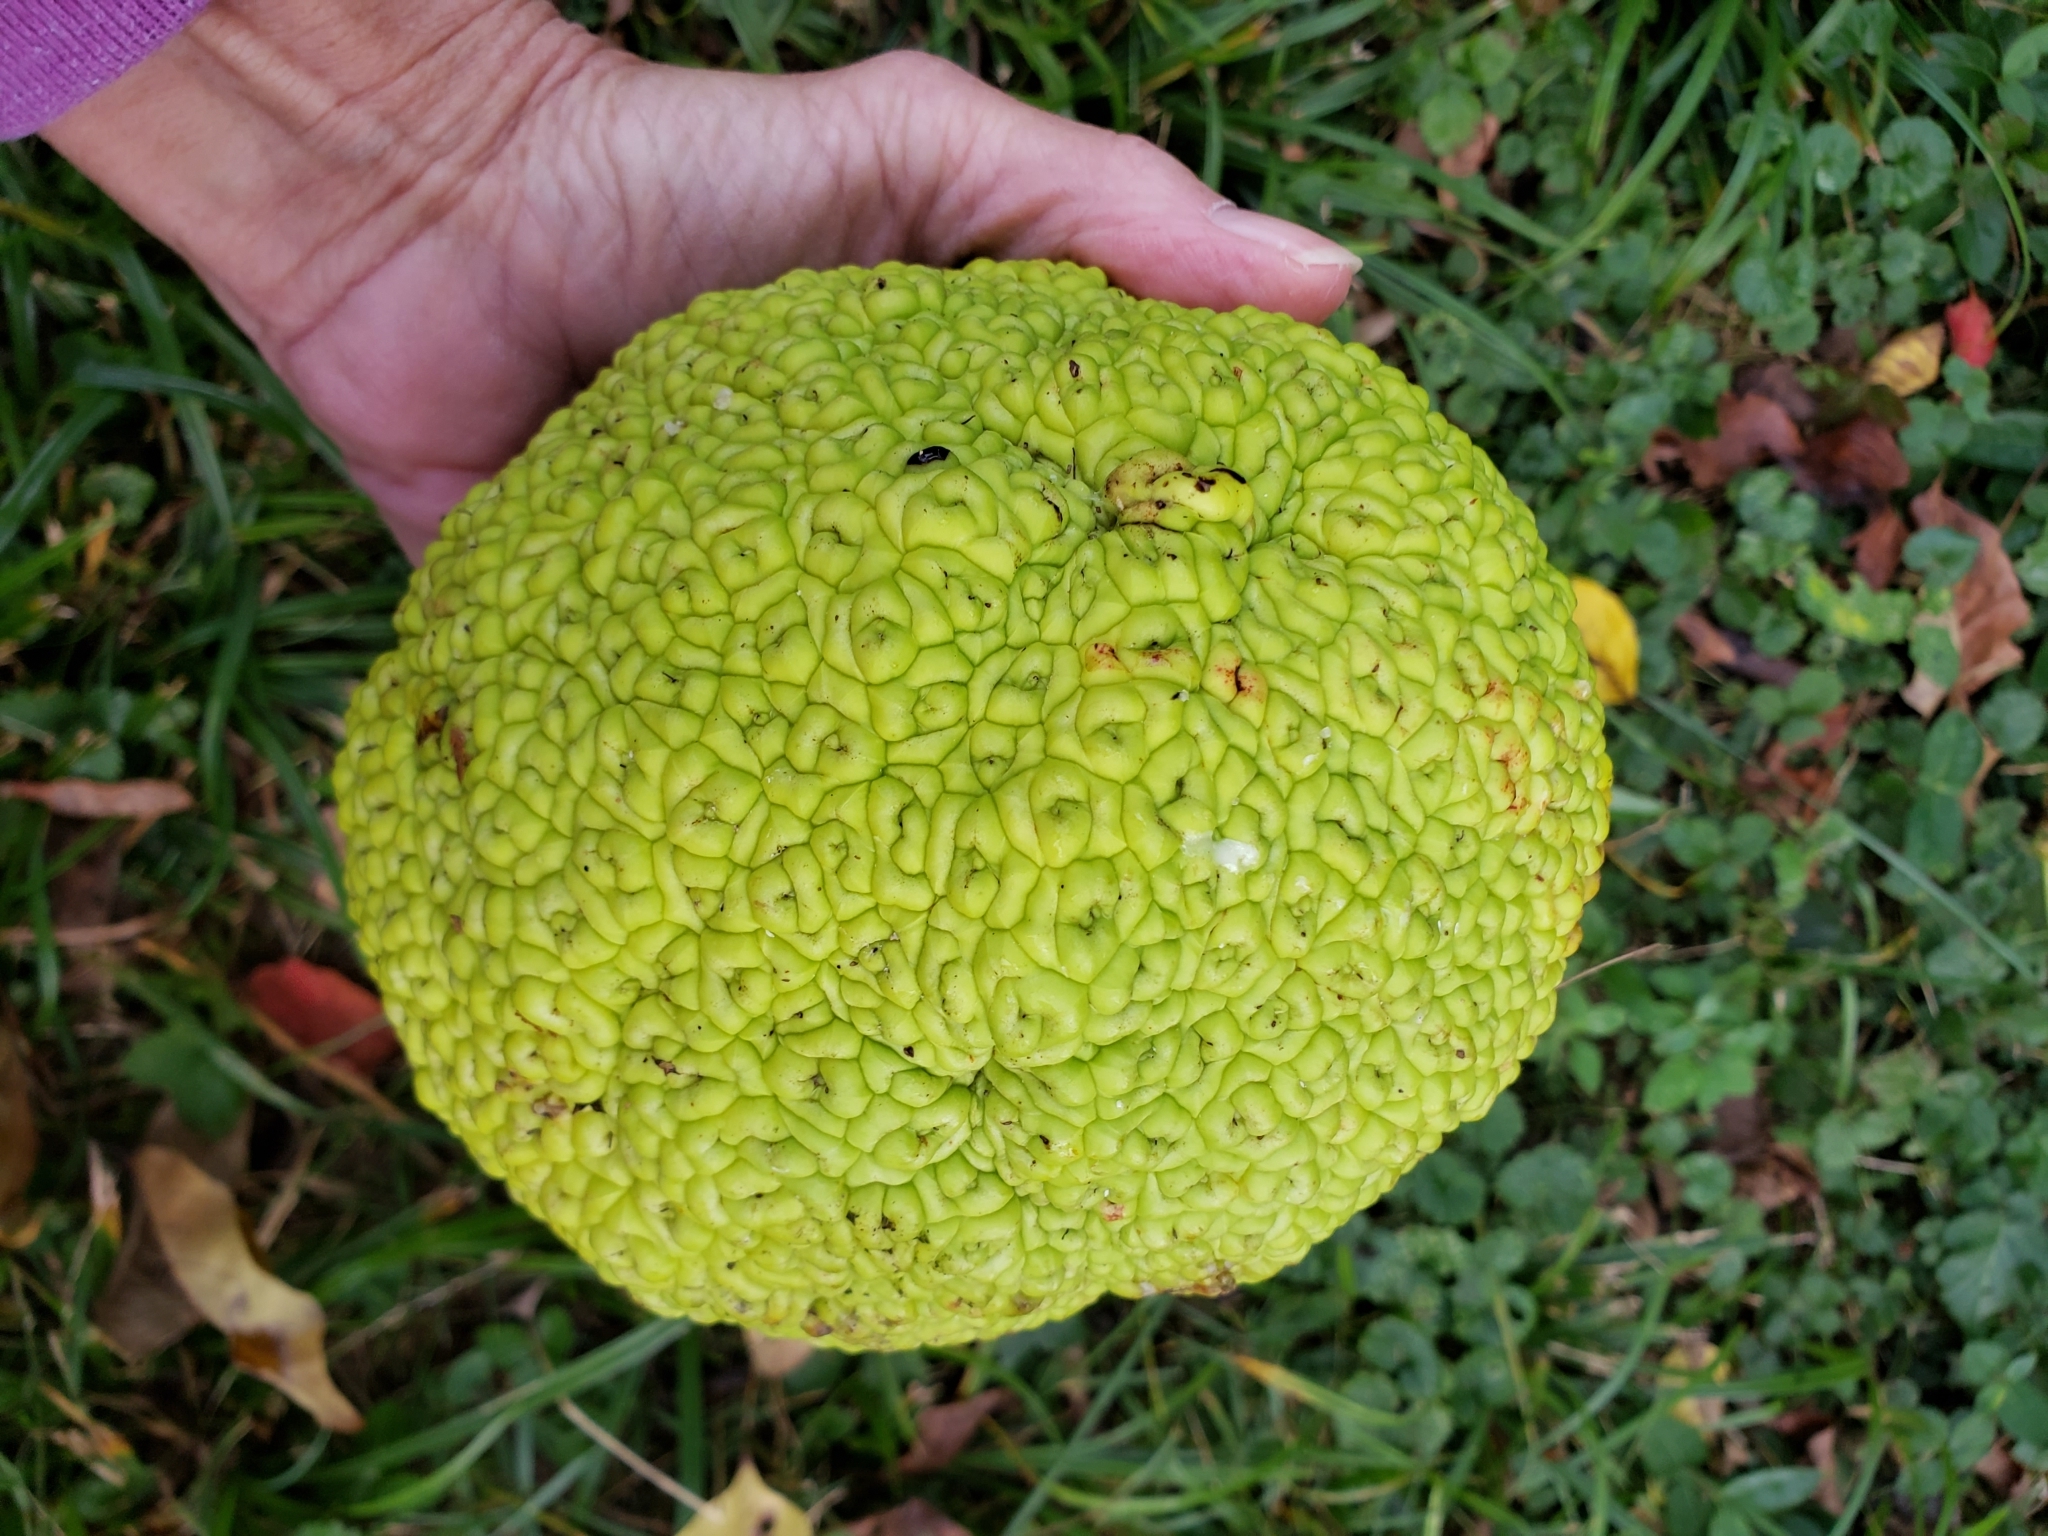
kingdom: Plantae
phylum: Tracheophyta
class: Magnoliopsida
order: Rosales
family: Moraceae
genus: Maclura
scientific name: Maclura pomifera
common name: Osage-orange
